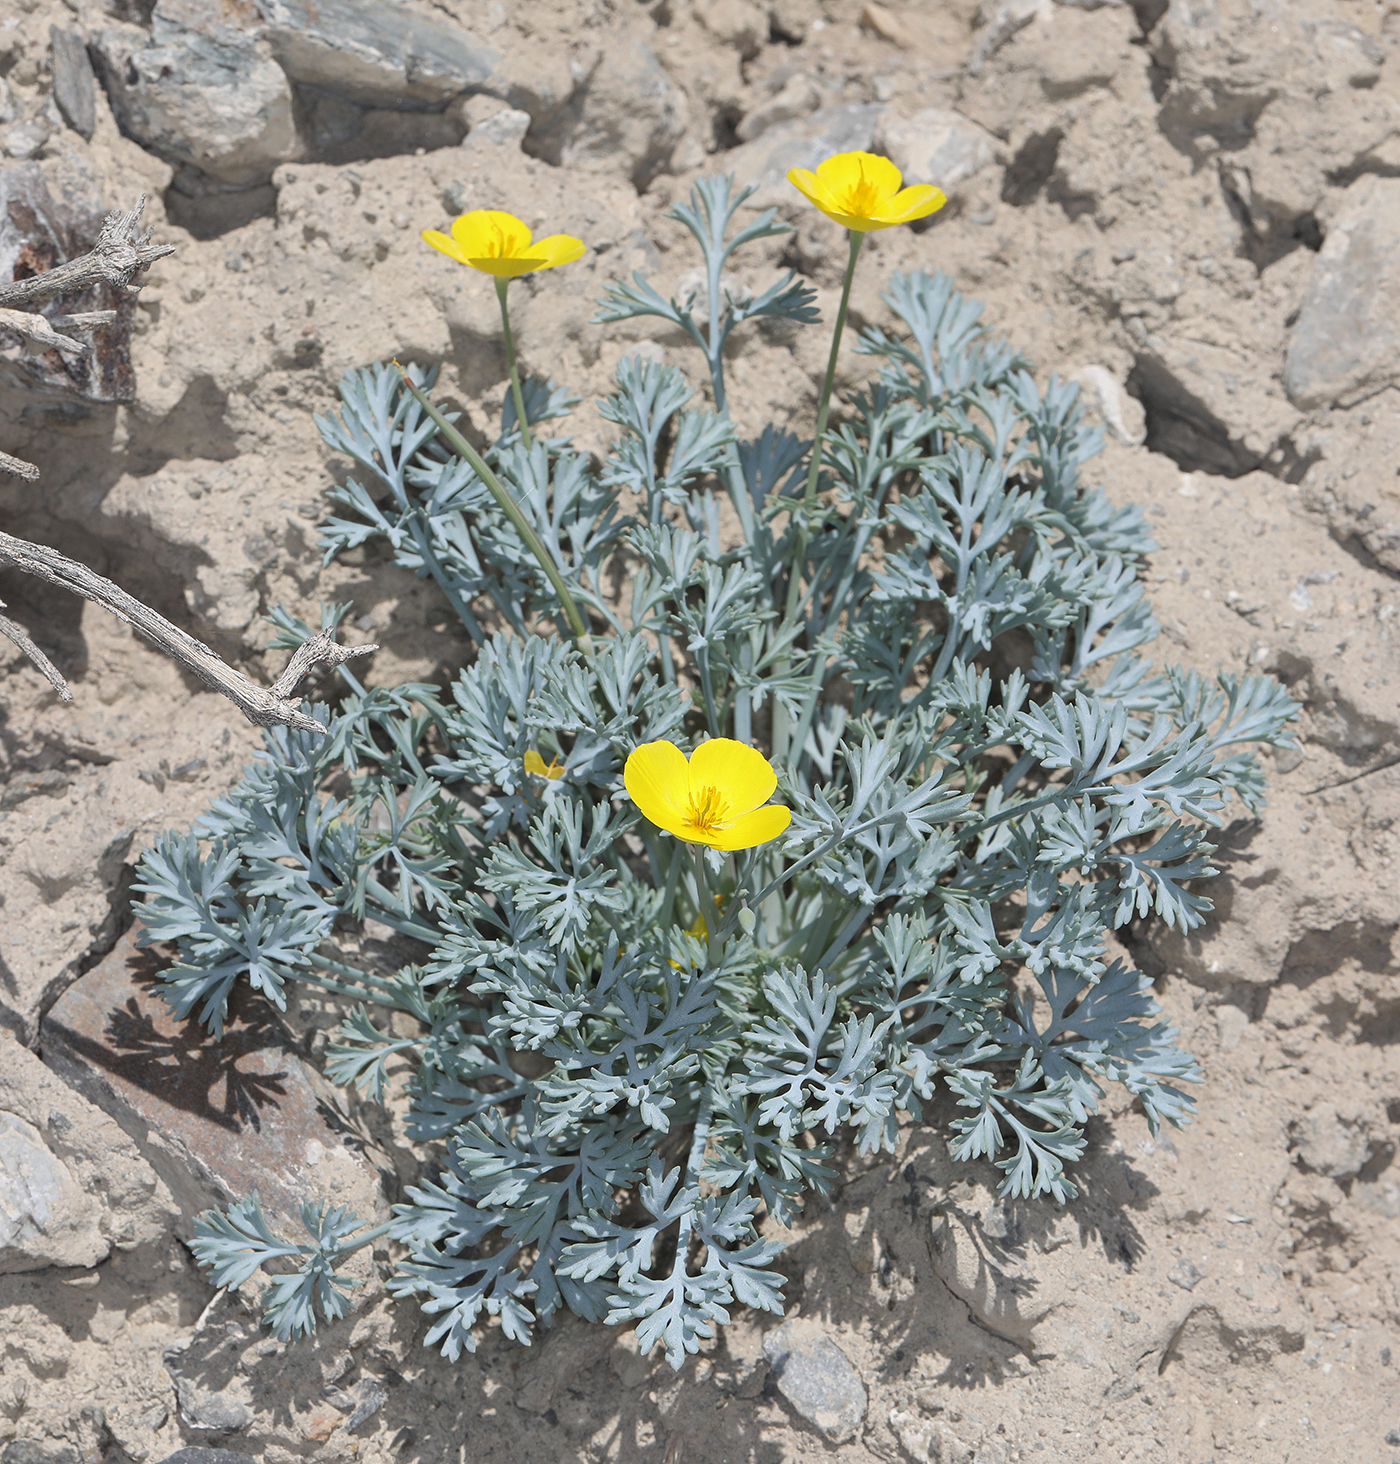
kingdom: Plantae
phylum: Tracheophyta
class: Magnoliopsida
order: Ranunculales
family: Papaveraceae
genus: Eschscholzia
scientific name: Eschscholzia minutiflora
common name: Small-flower california-poppy
